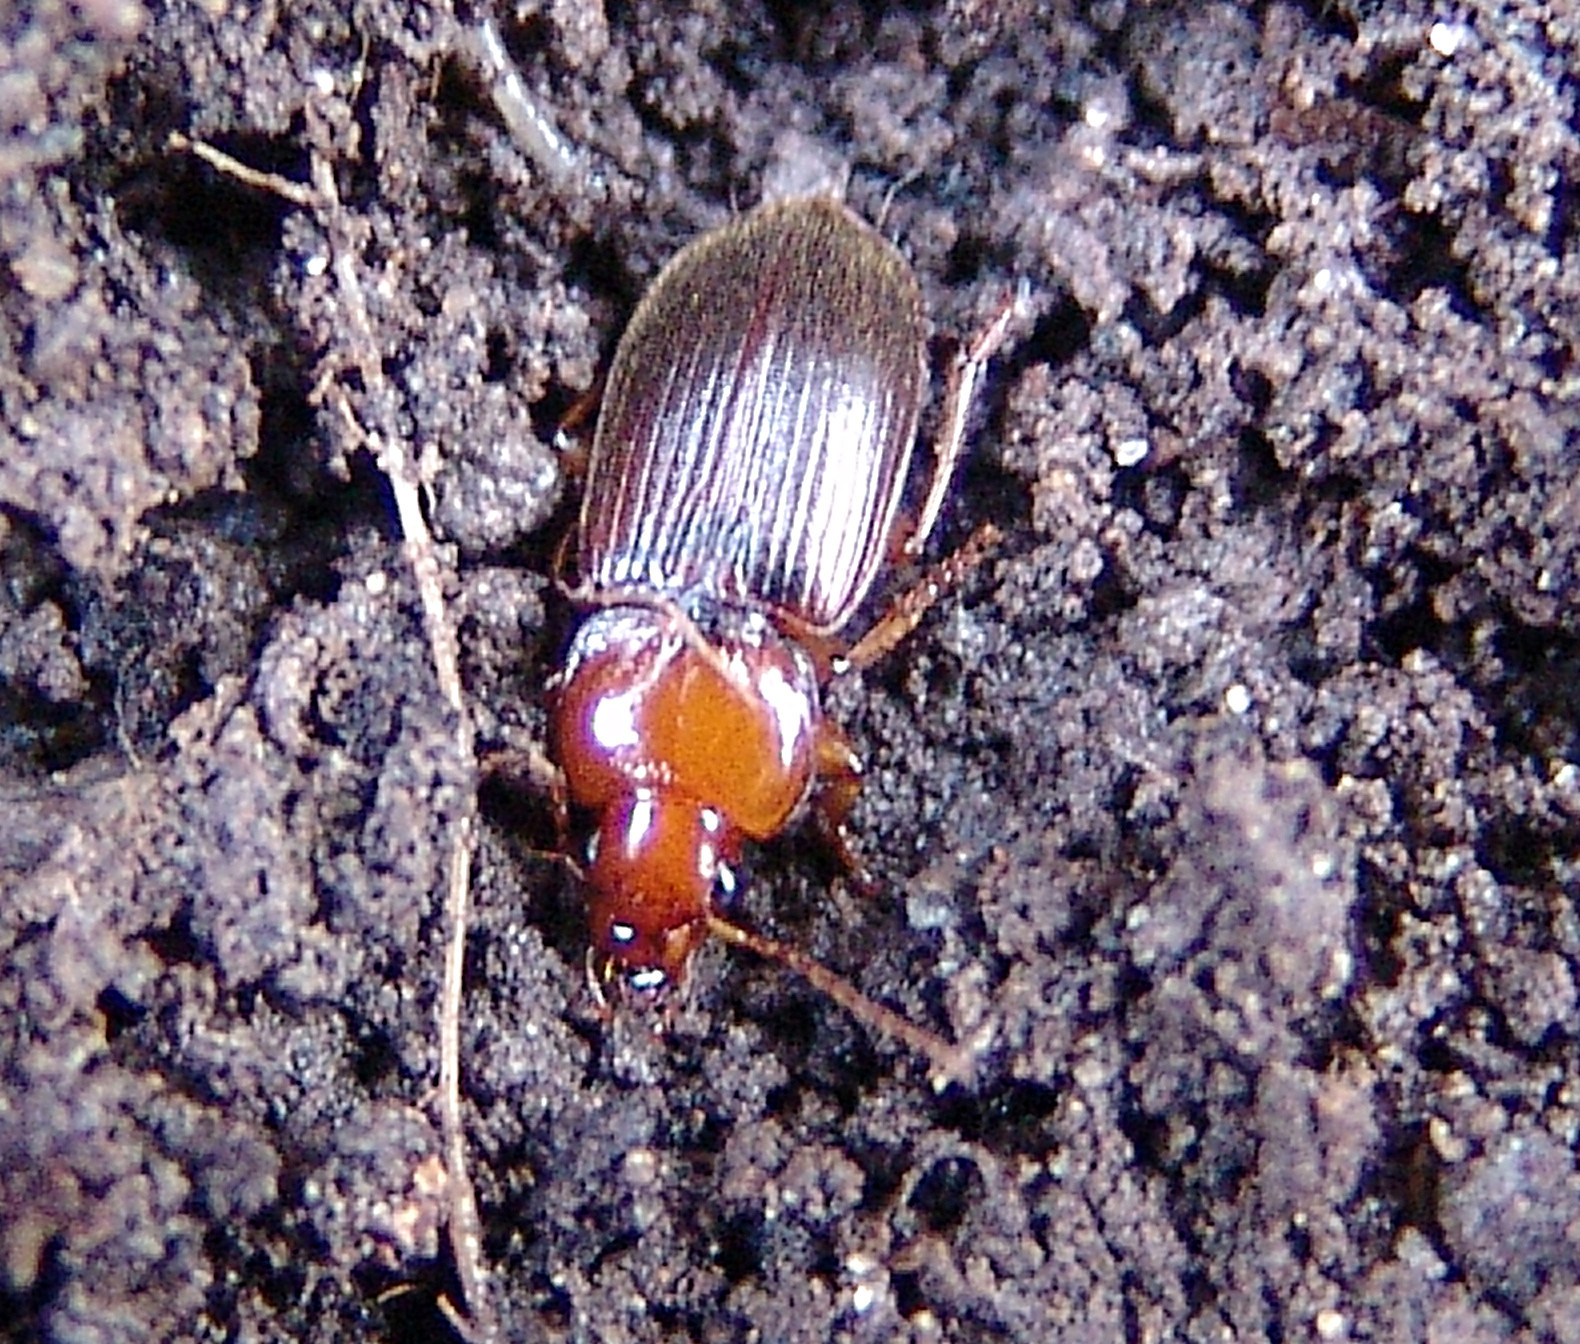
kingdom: Animalia
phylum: Arthropoda
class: Insecta
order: Coleoptera
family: Carabidae
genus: Amphasia
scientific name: Amphasia interstitialis
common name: Red-headed ground beetle
